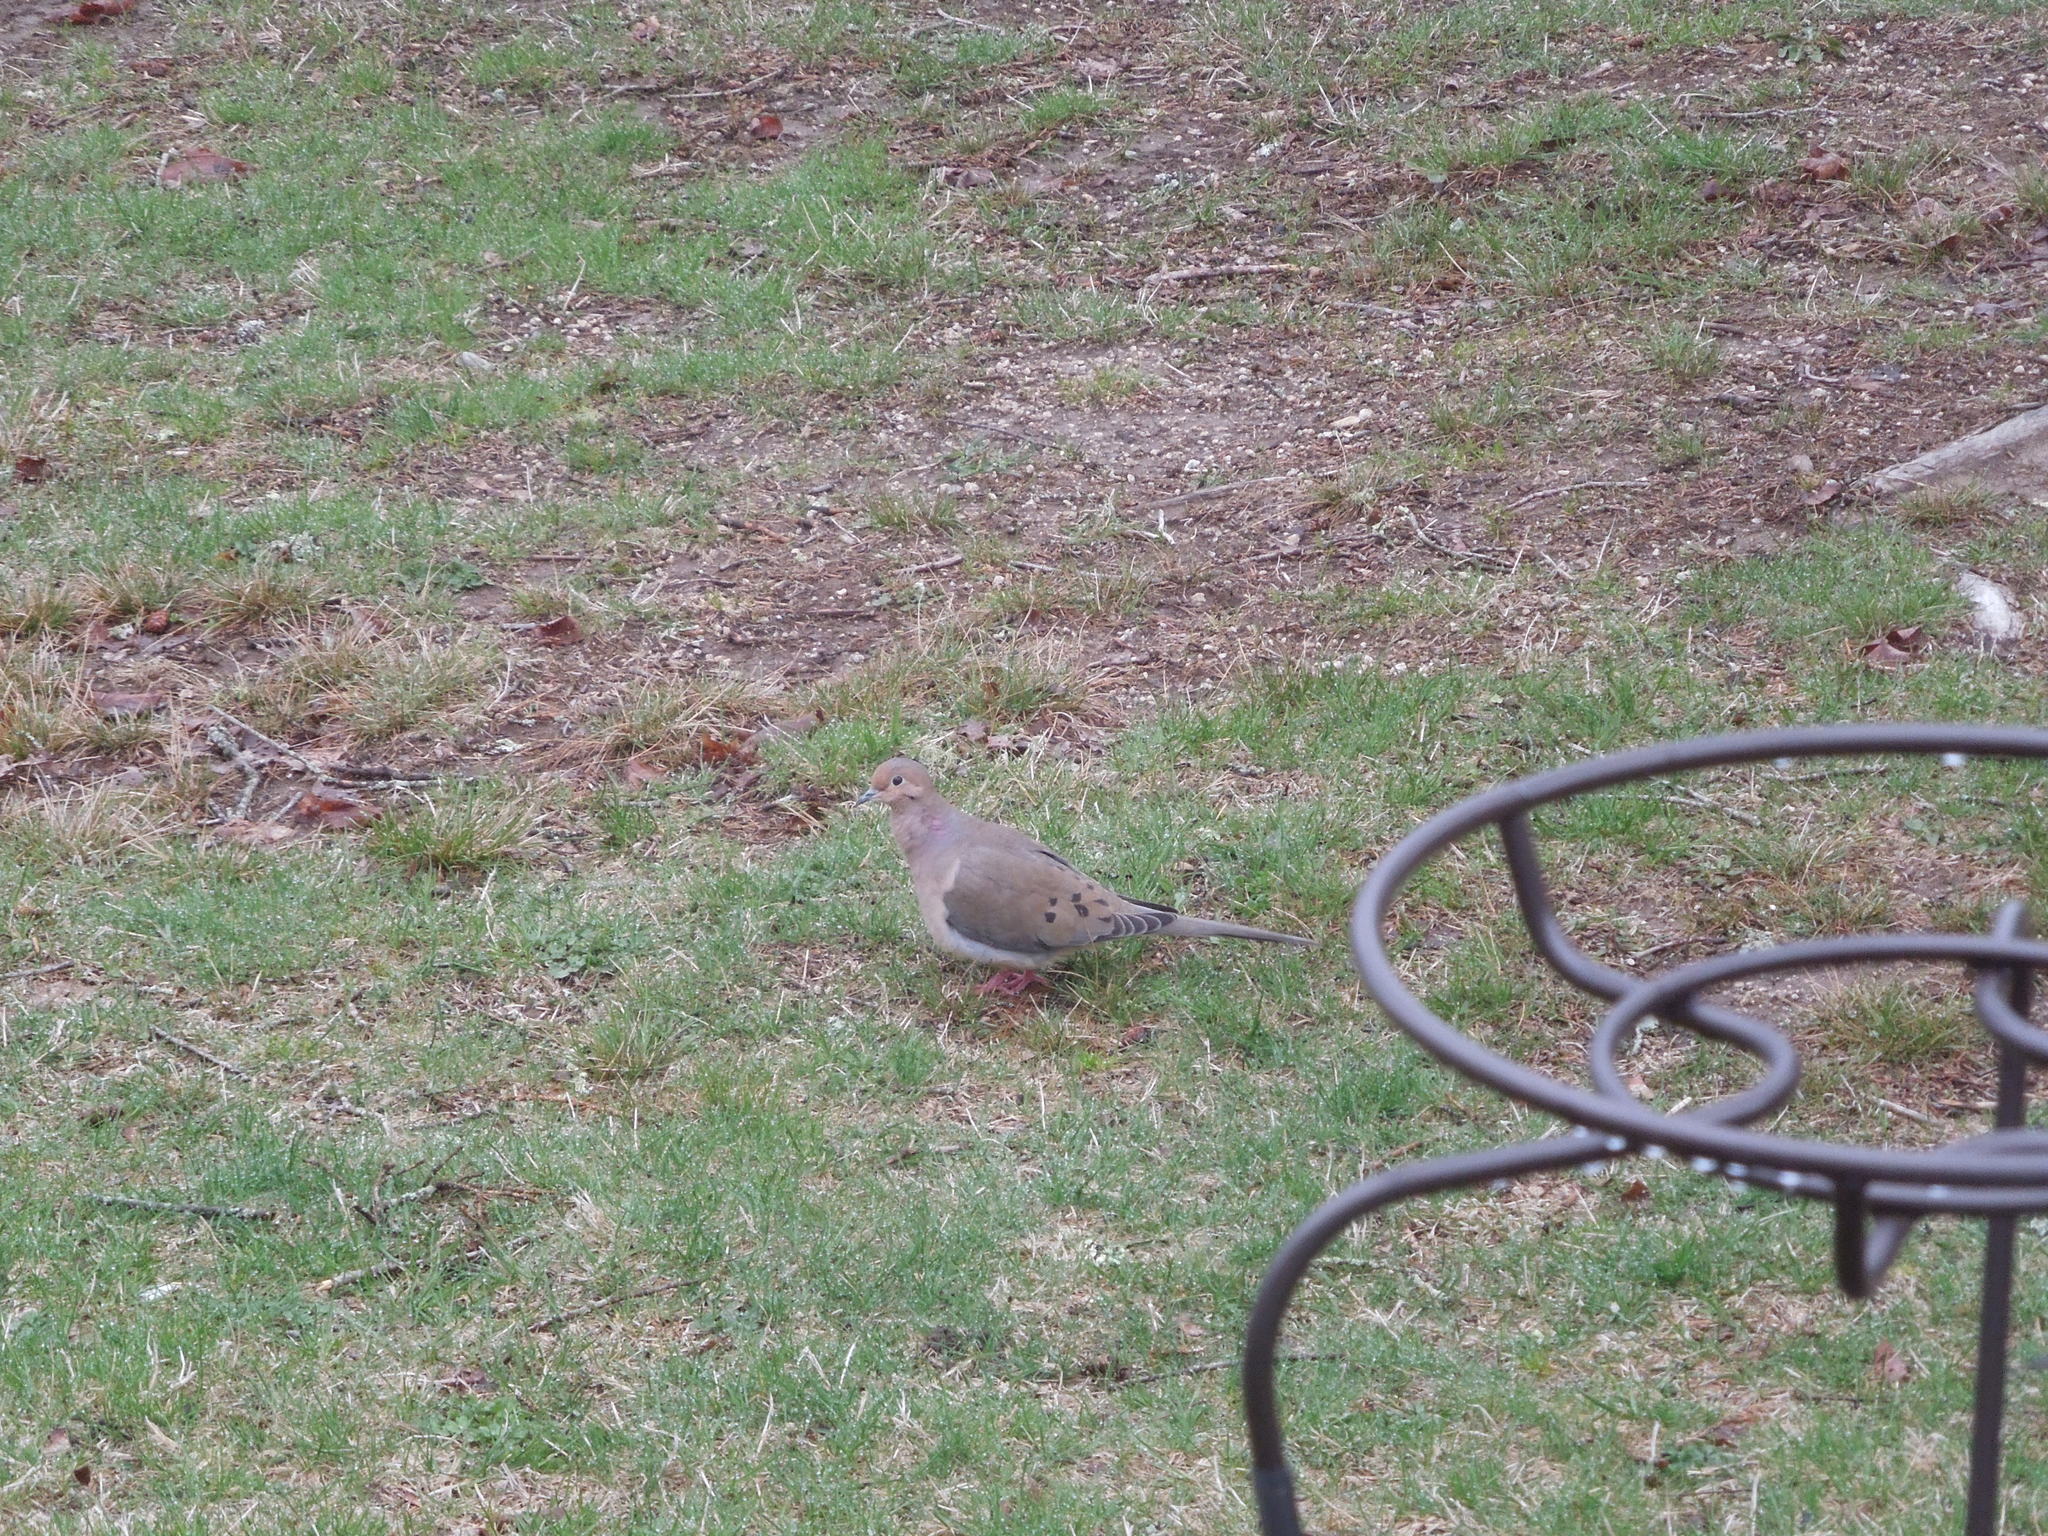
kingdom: Animalia
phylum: Chordata
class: Aves
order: Columbiformes
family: Columbidae
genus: Zenaida
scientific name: Zenaida macroura
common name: Mourning dove
